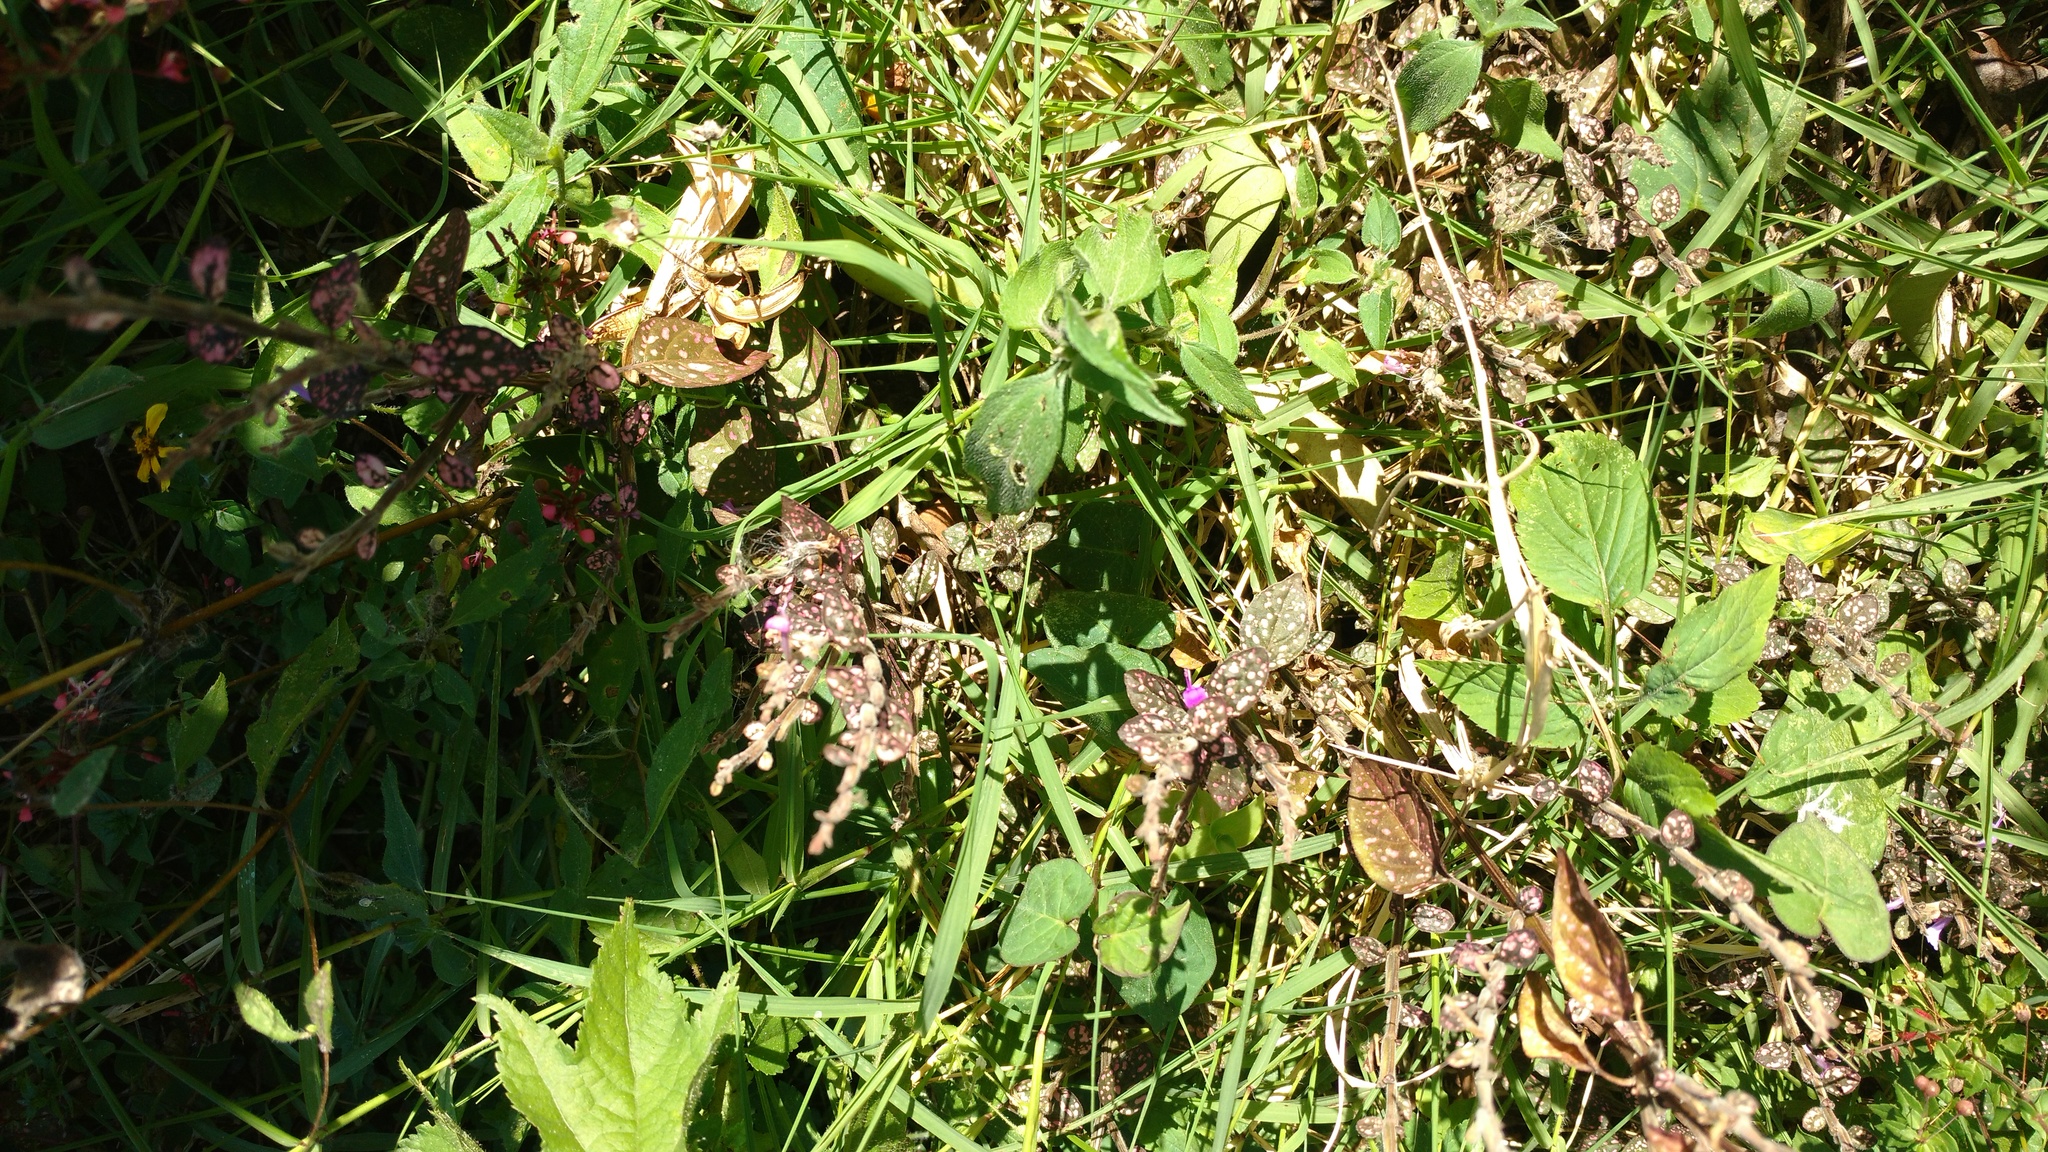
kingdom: Plantae
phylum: Tracheophyta
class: Magnoliopsida
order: Lamiales
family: Acanthaceae
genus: Hypoestes
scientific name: Hypoestes phyllostachya
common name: Polkadot-plant
